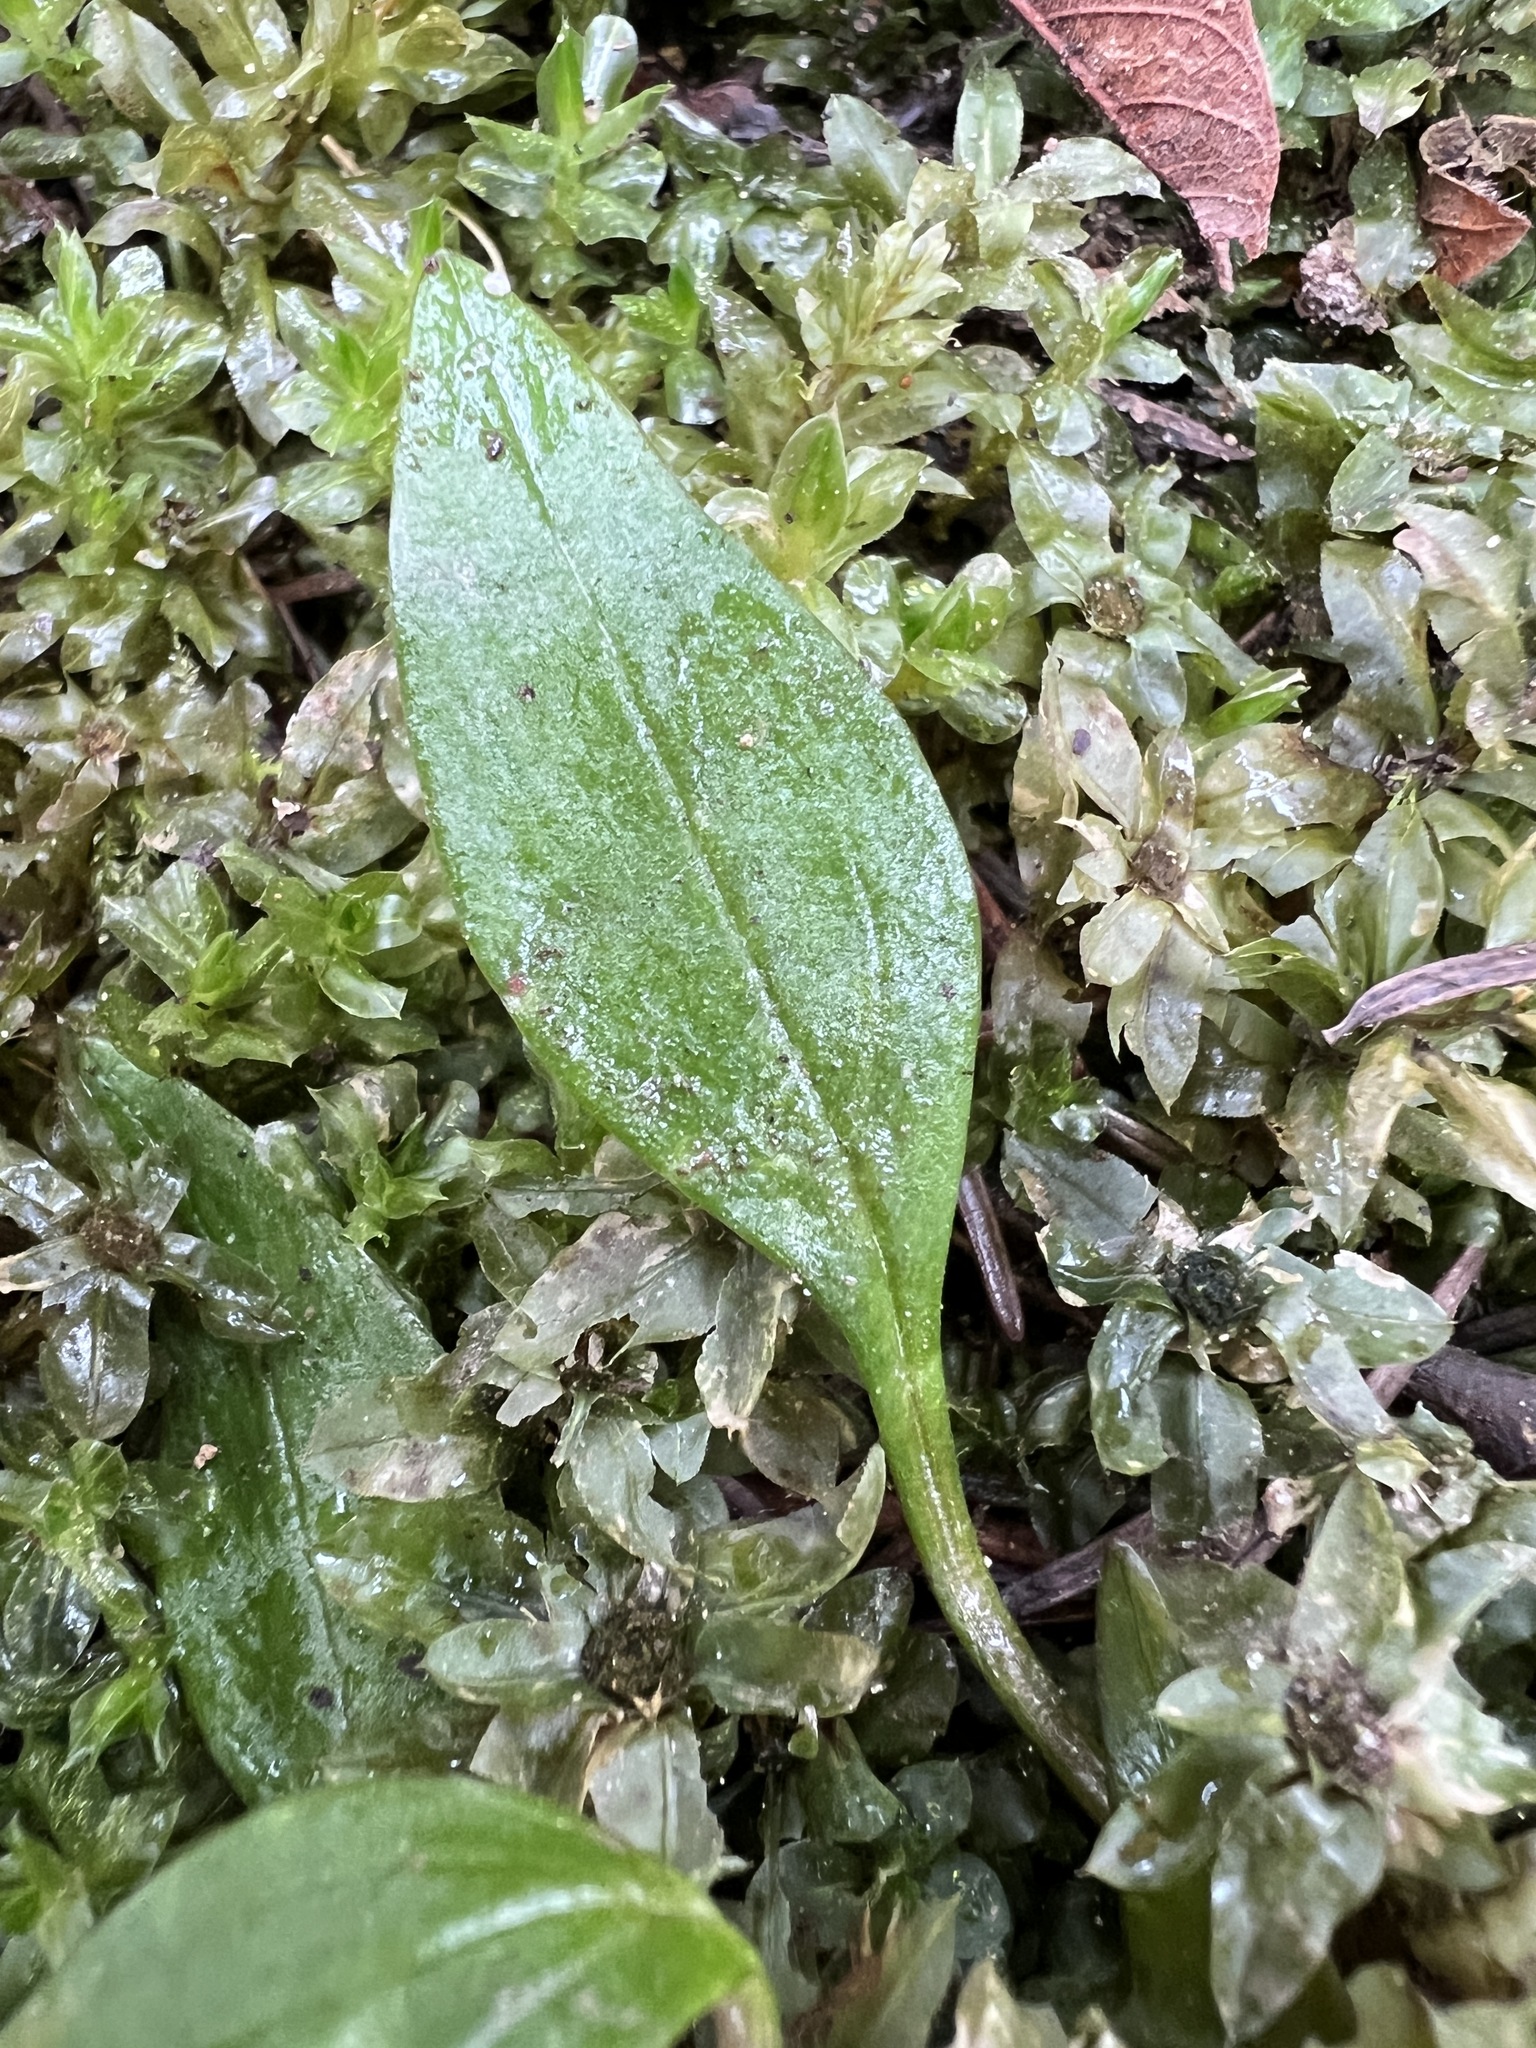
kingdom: Plantae
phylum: Tracheophyta
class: Magnoliopsida
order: Caryophyllales
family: Montiaceae
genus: Claytonia
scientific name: Claytonia sibirica
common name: Pink purslane
